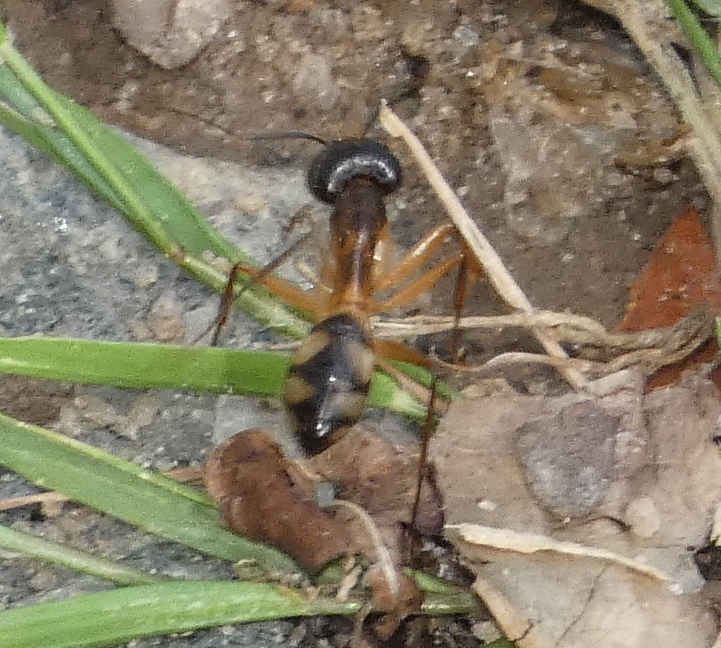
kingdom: Animalia
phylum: Arthropoda
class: Insecta
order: Hymenoptera
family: Formicidae
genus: Camponotus
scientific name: Camponotus substitutus
